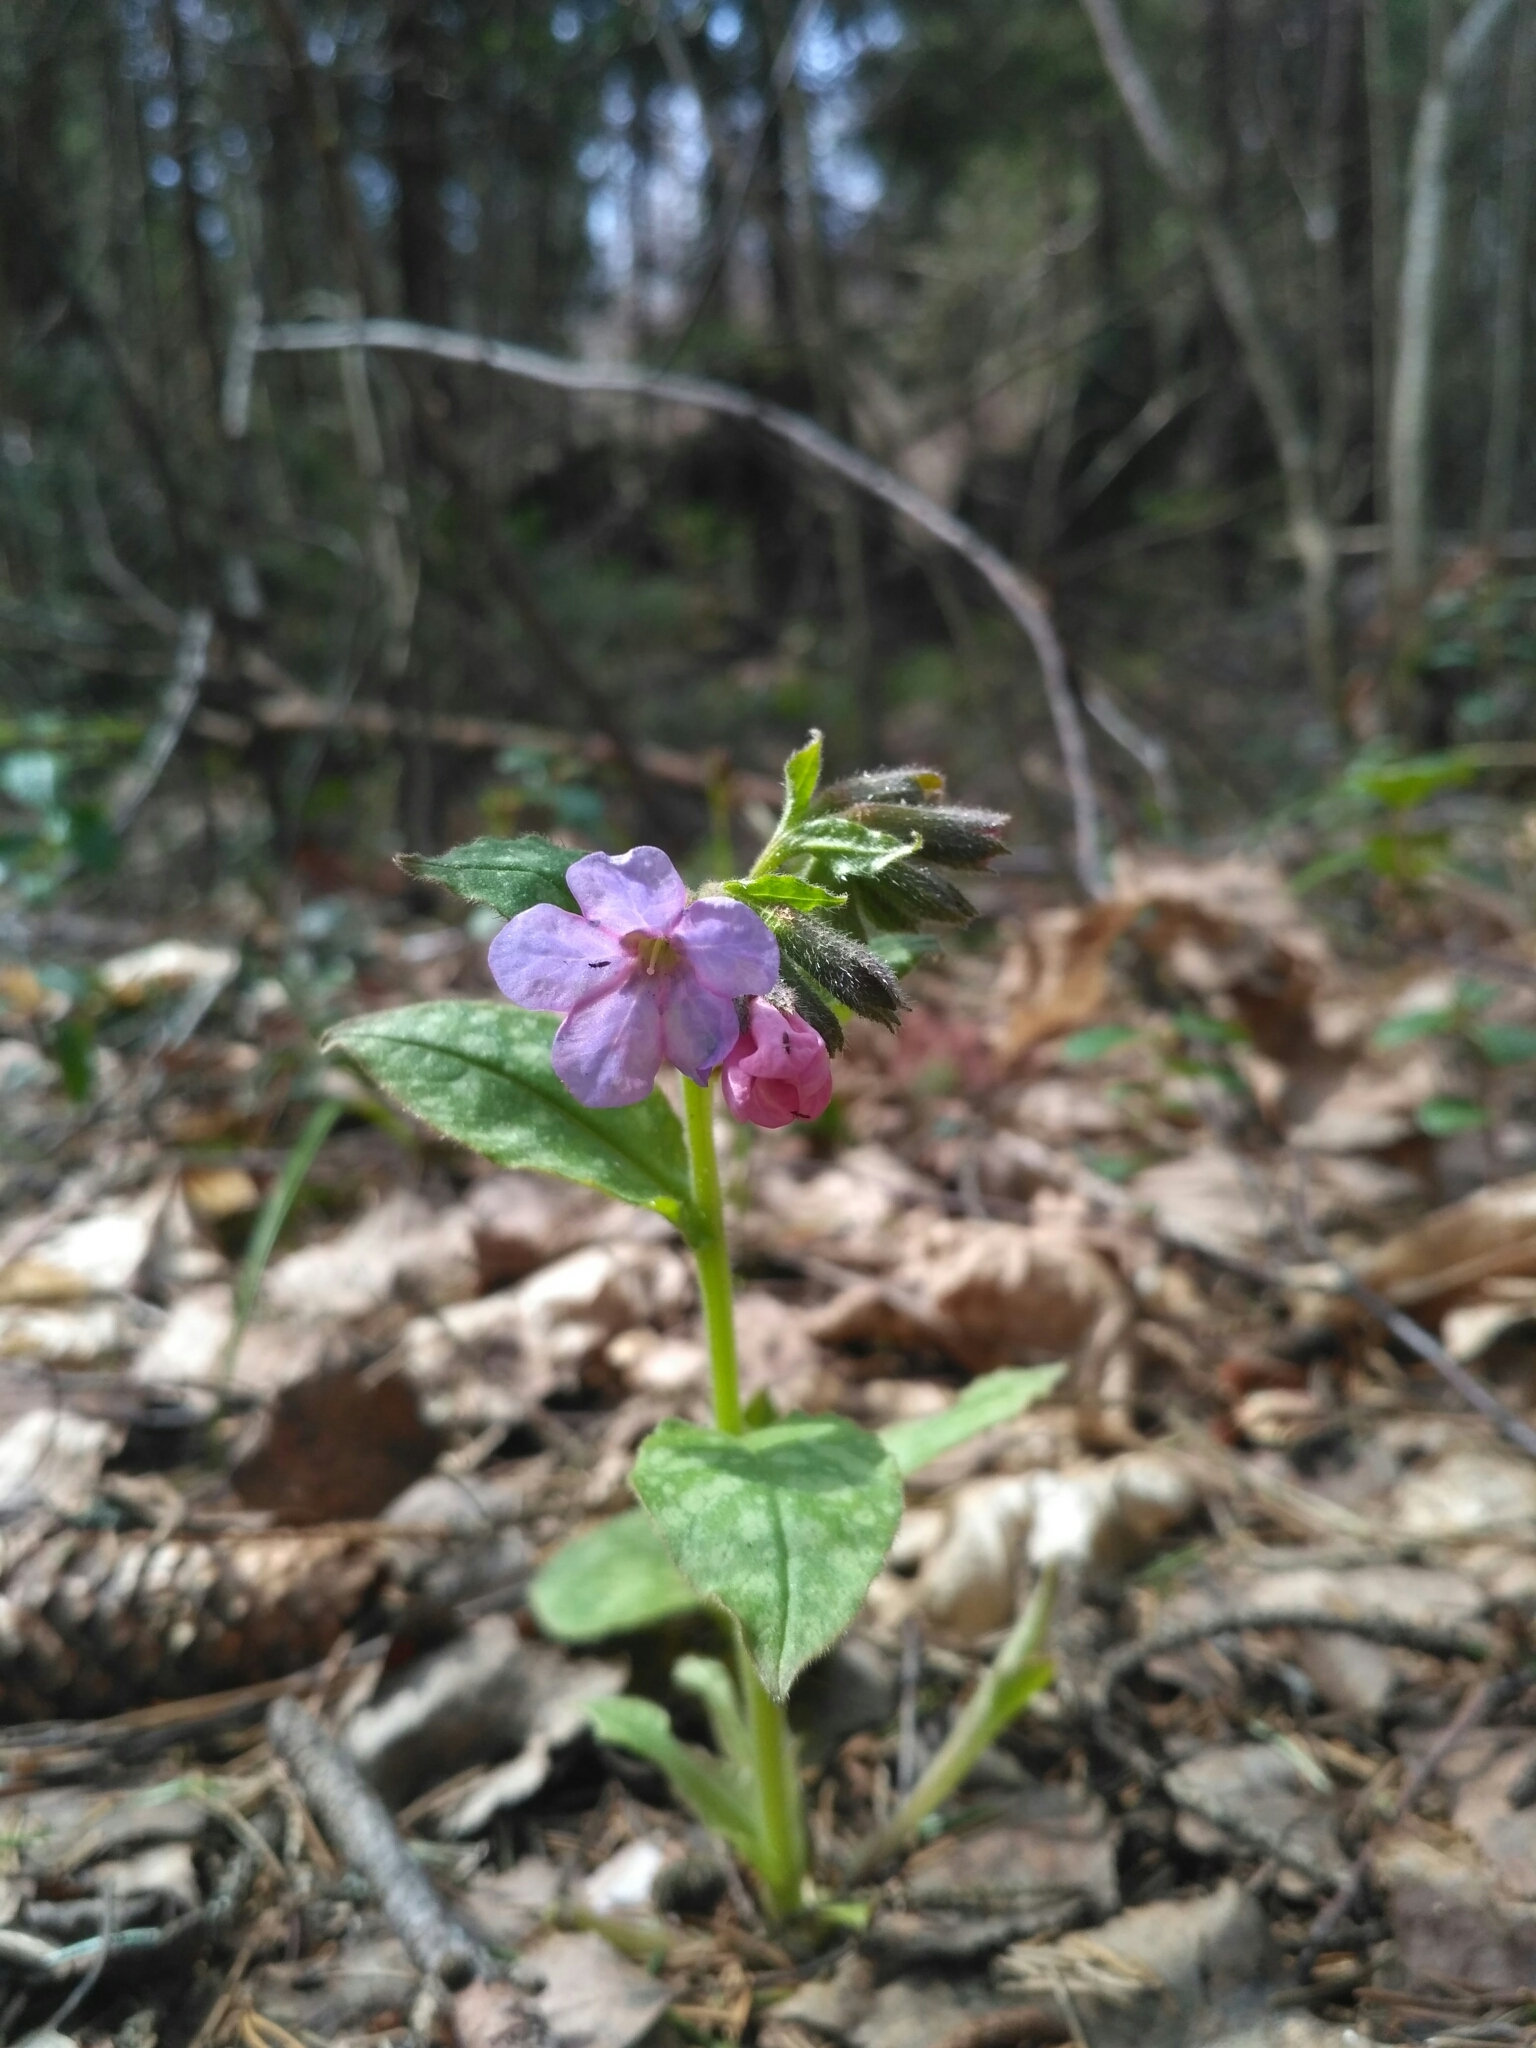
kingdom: Plantae
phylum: Tracheophyta
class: Magnoliopsida
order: Boraginales
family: Boraginaceae
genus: Pulmonaria
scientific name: Pulmonaria obscura
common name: Suffolk lungwort
